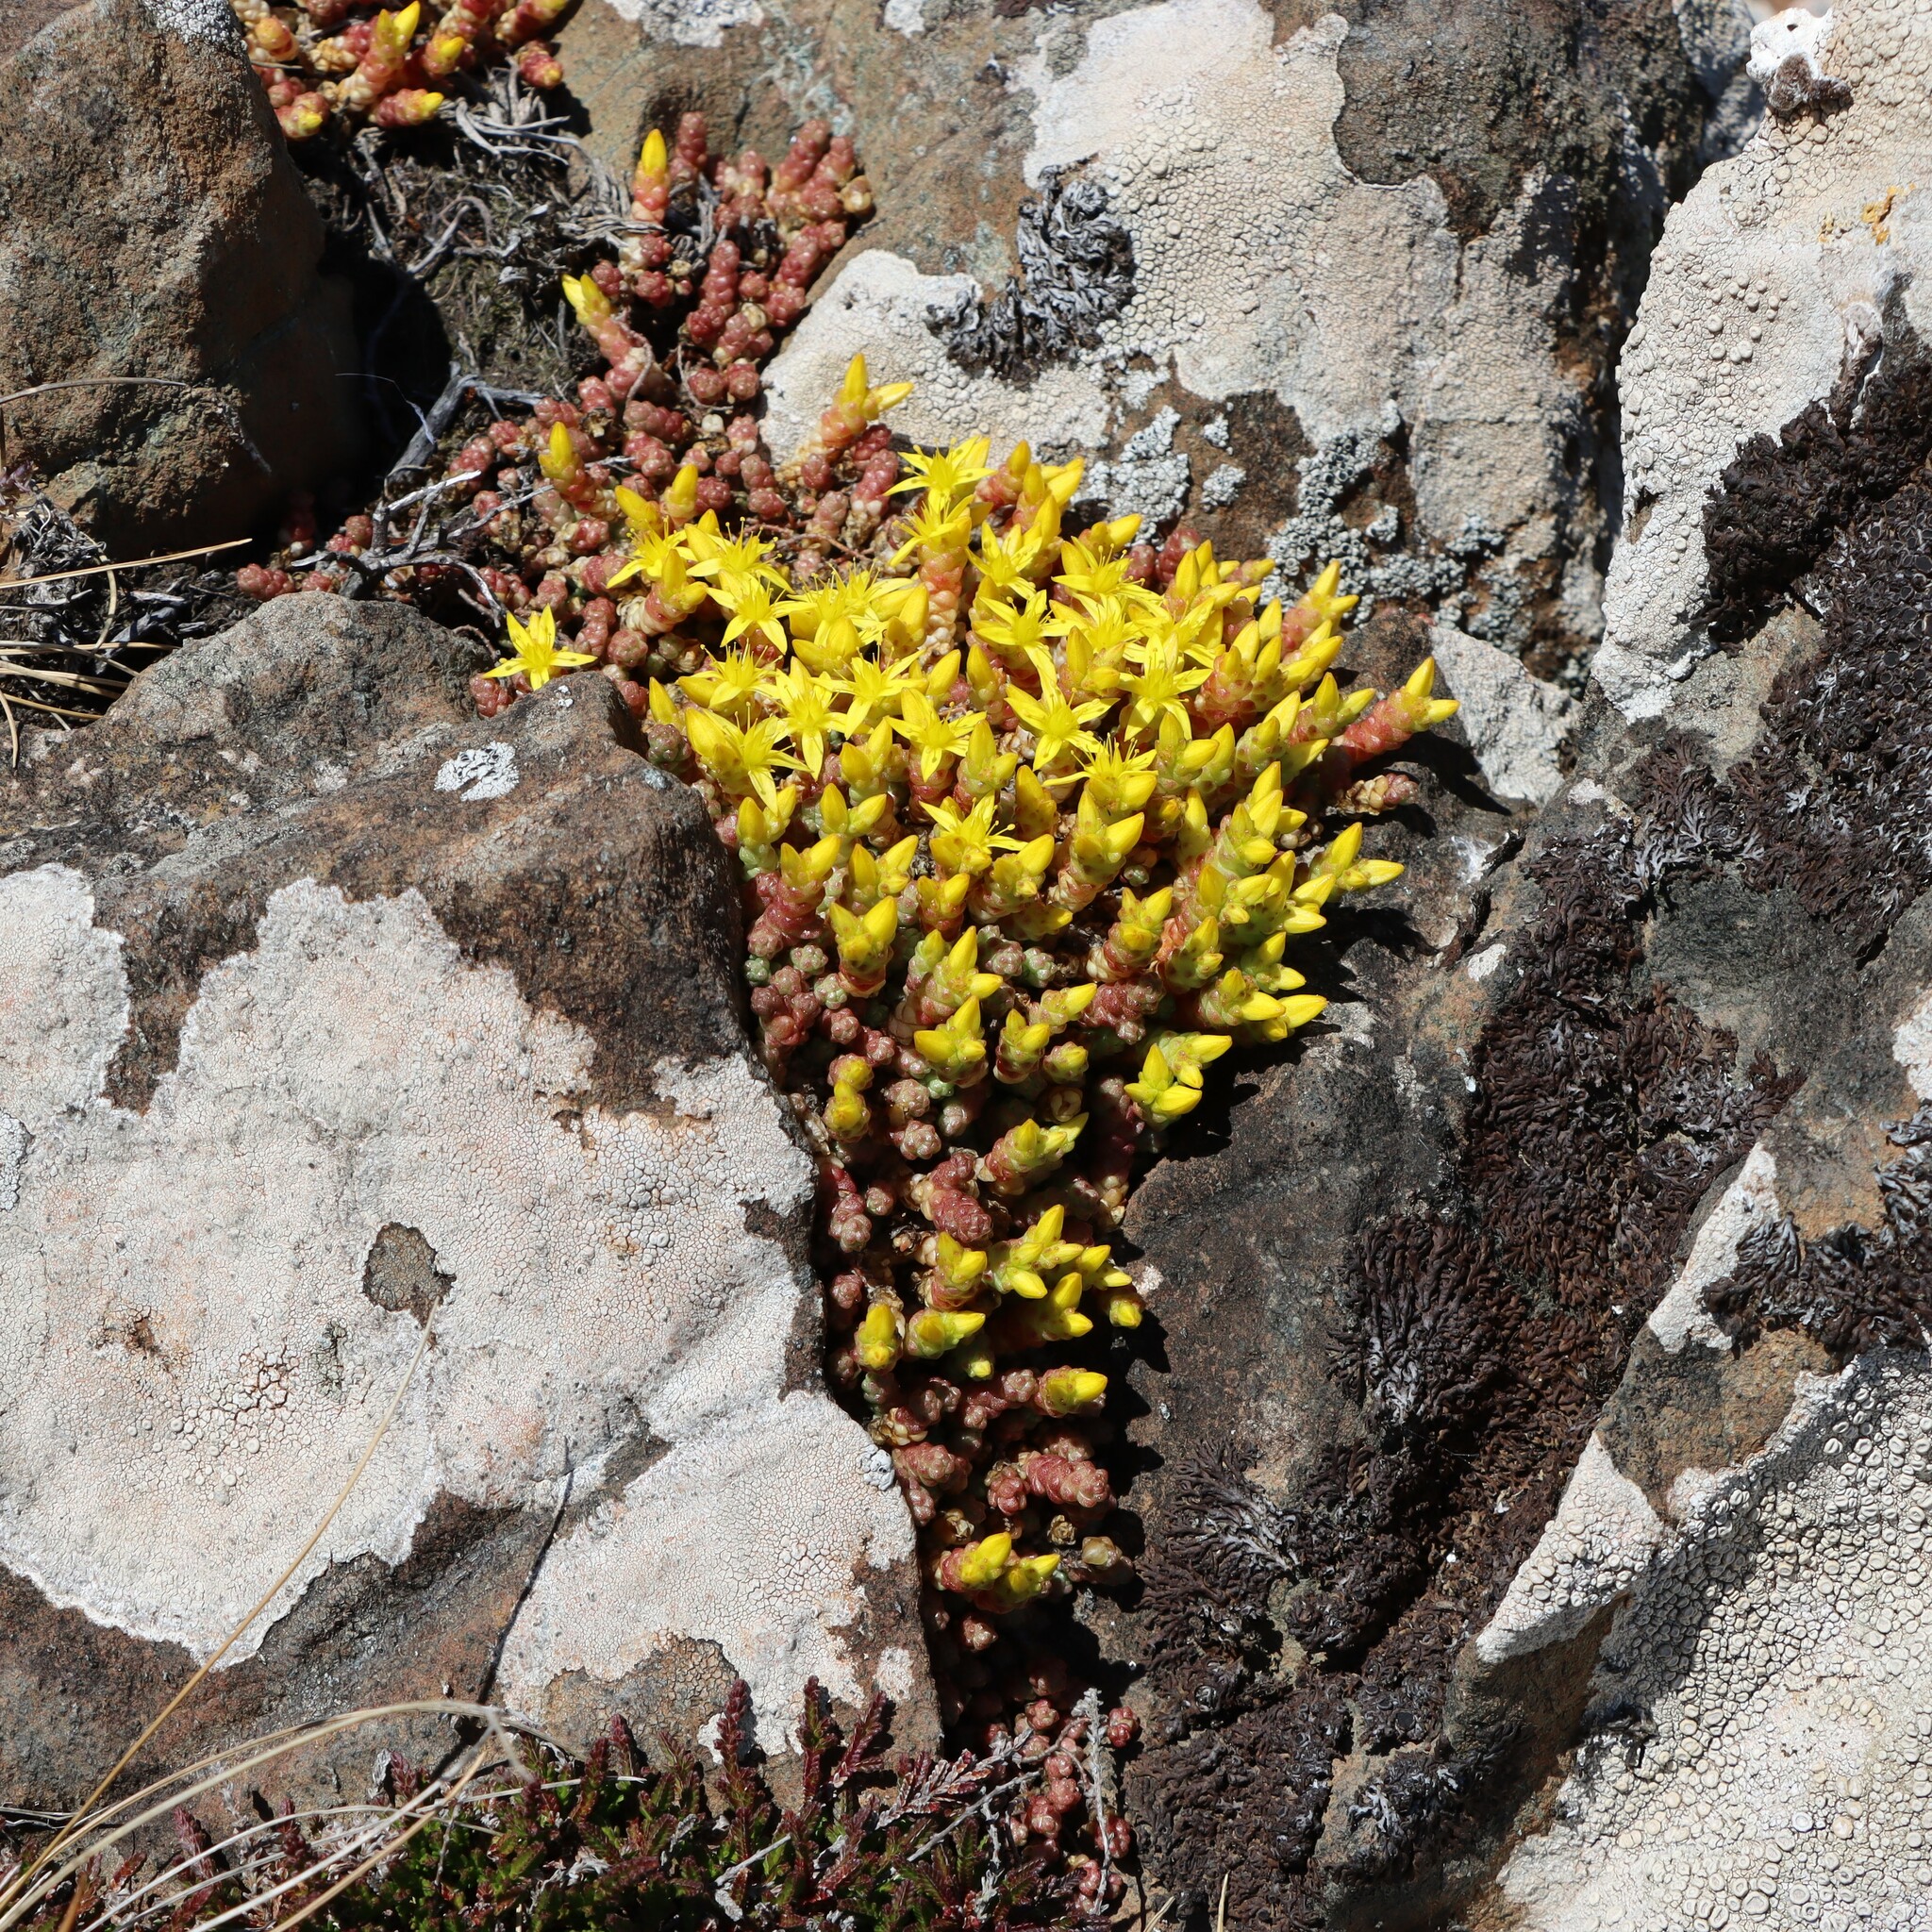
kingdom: Plantae
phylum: Tracheophyta
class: Magnoliopsida
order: Saxifragales
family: Crassulaceae
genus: Sedum
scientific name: Sedum acre
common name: Biting stonecrop
